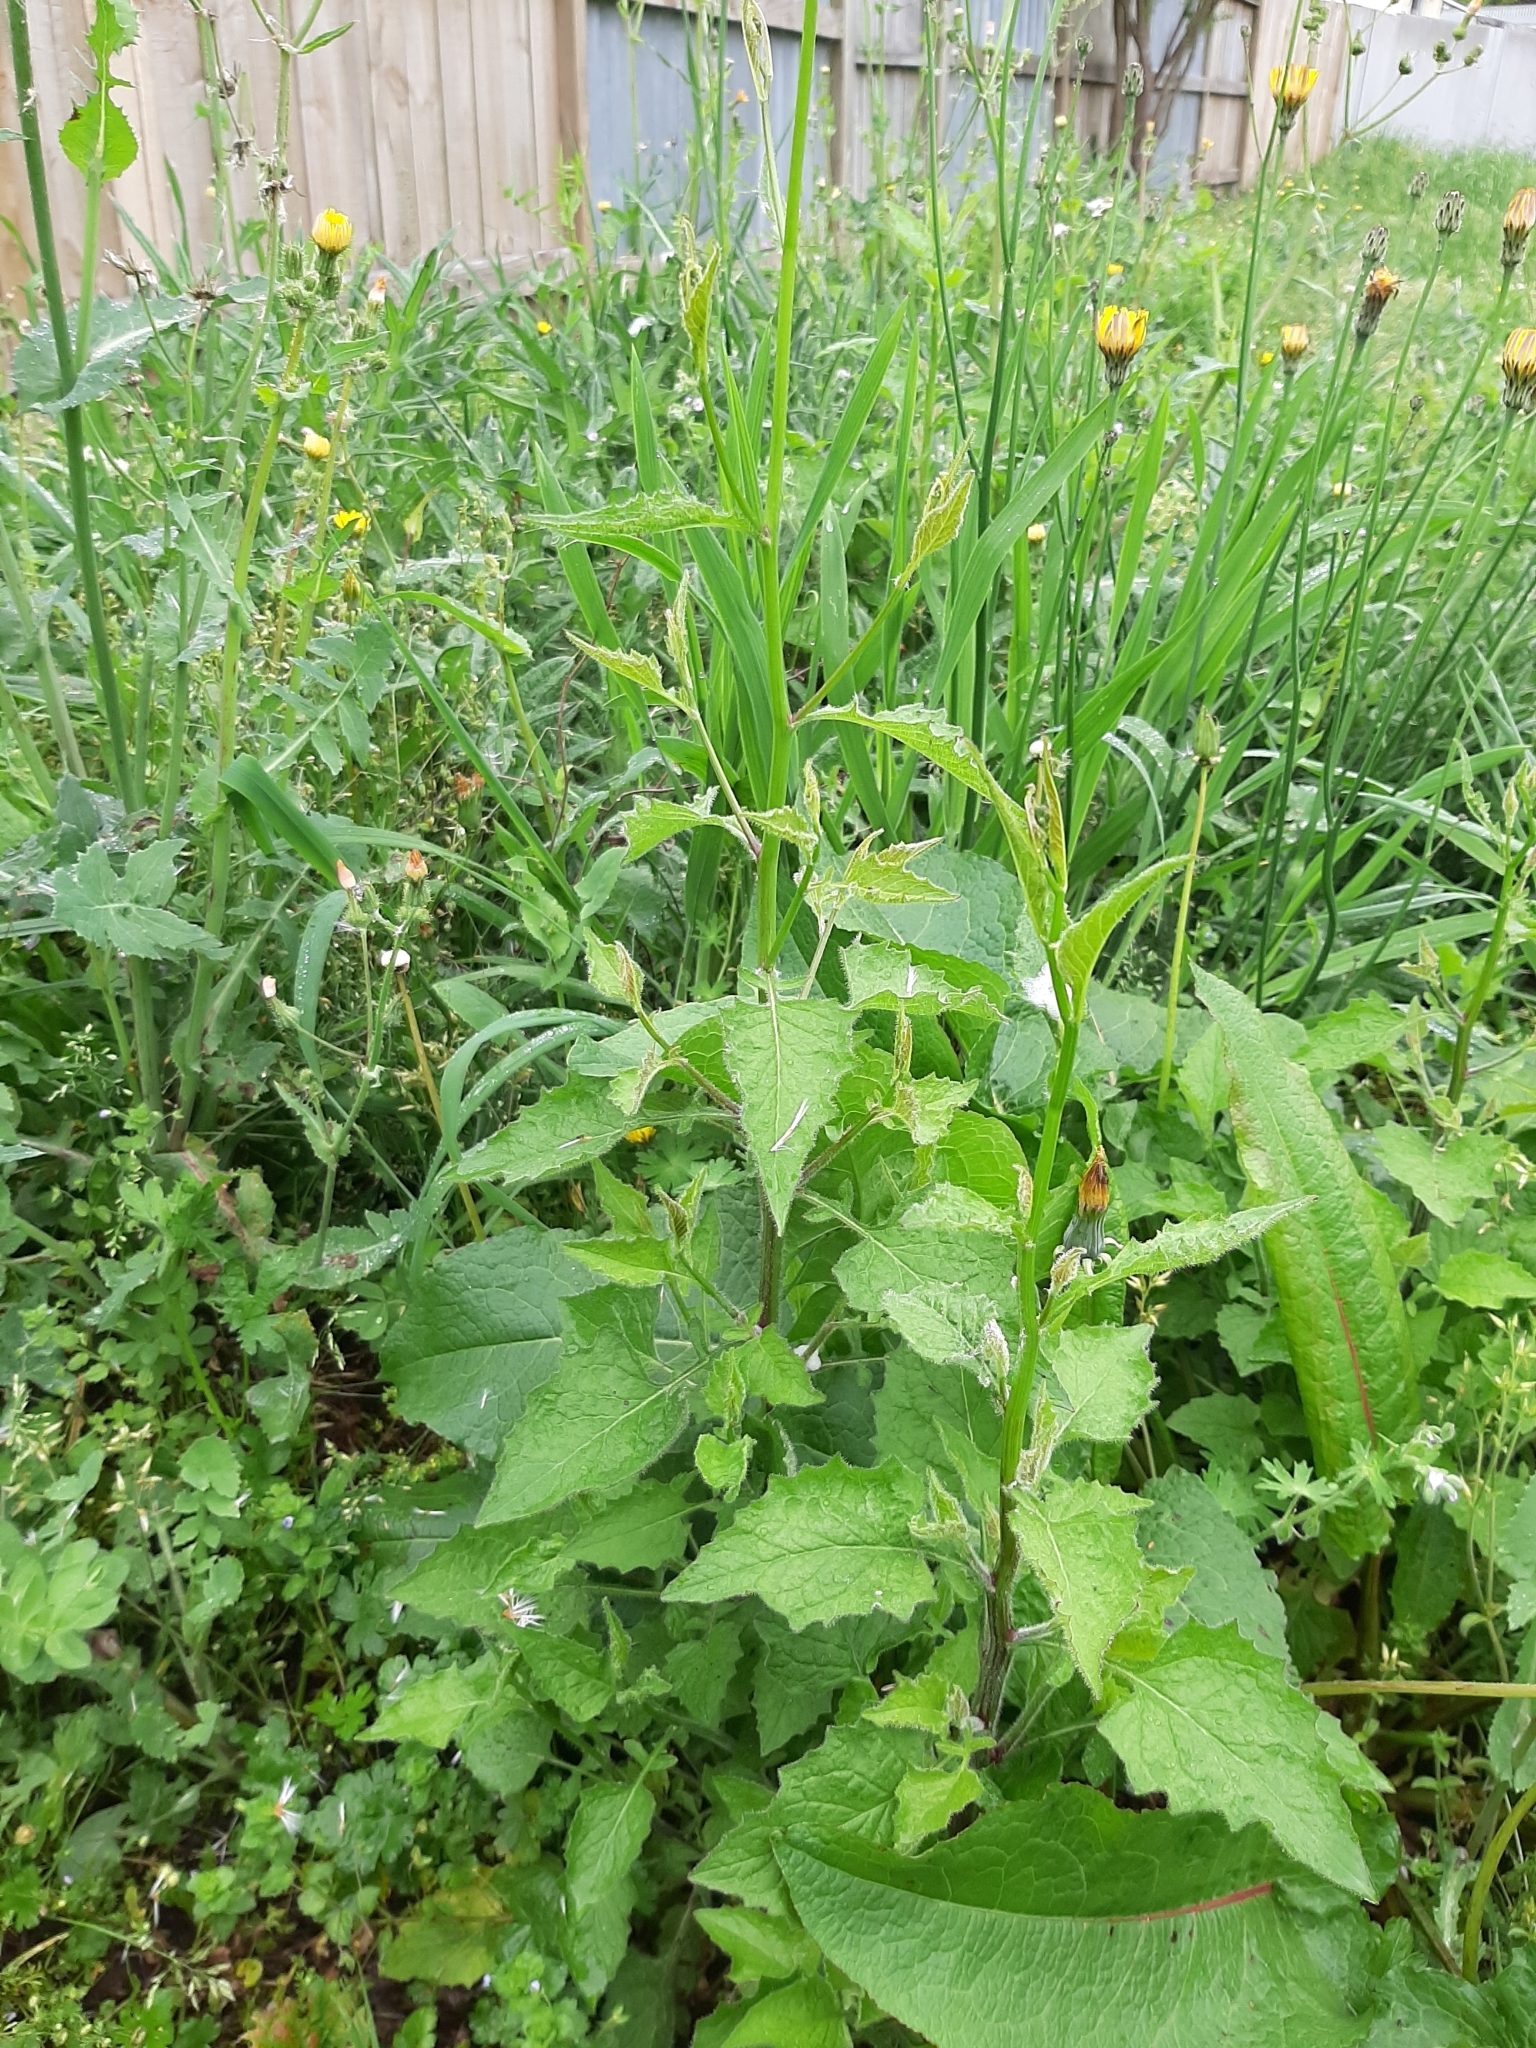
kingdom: Plantae
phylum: Tracheophyta
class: Magnoliopsida
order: Asterales
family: Asteraceae
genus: Lapsana
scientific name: Lapsana communis
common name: Nipplewort
